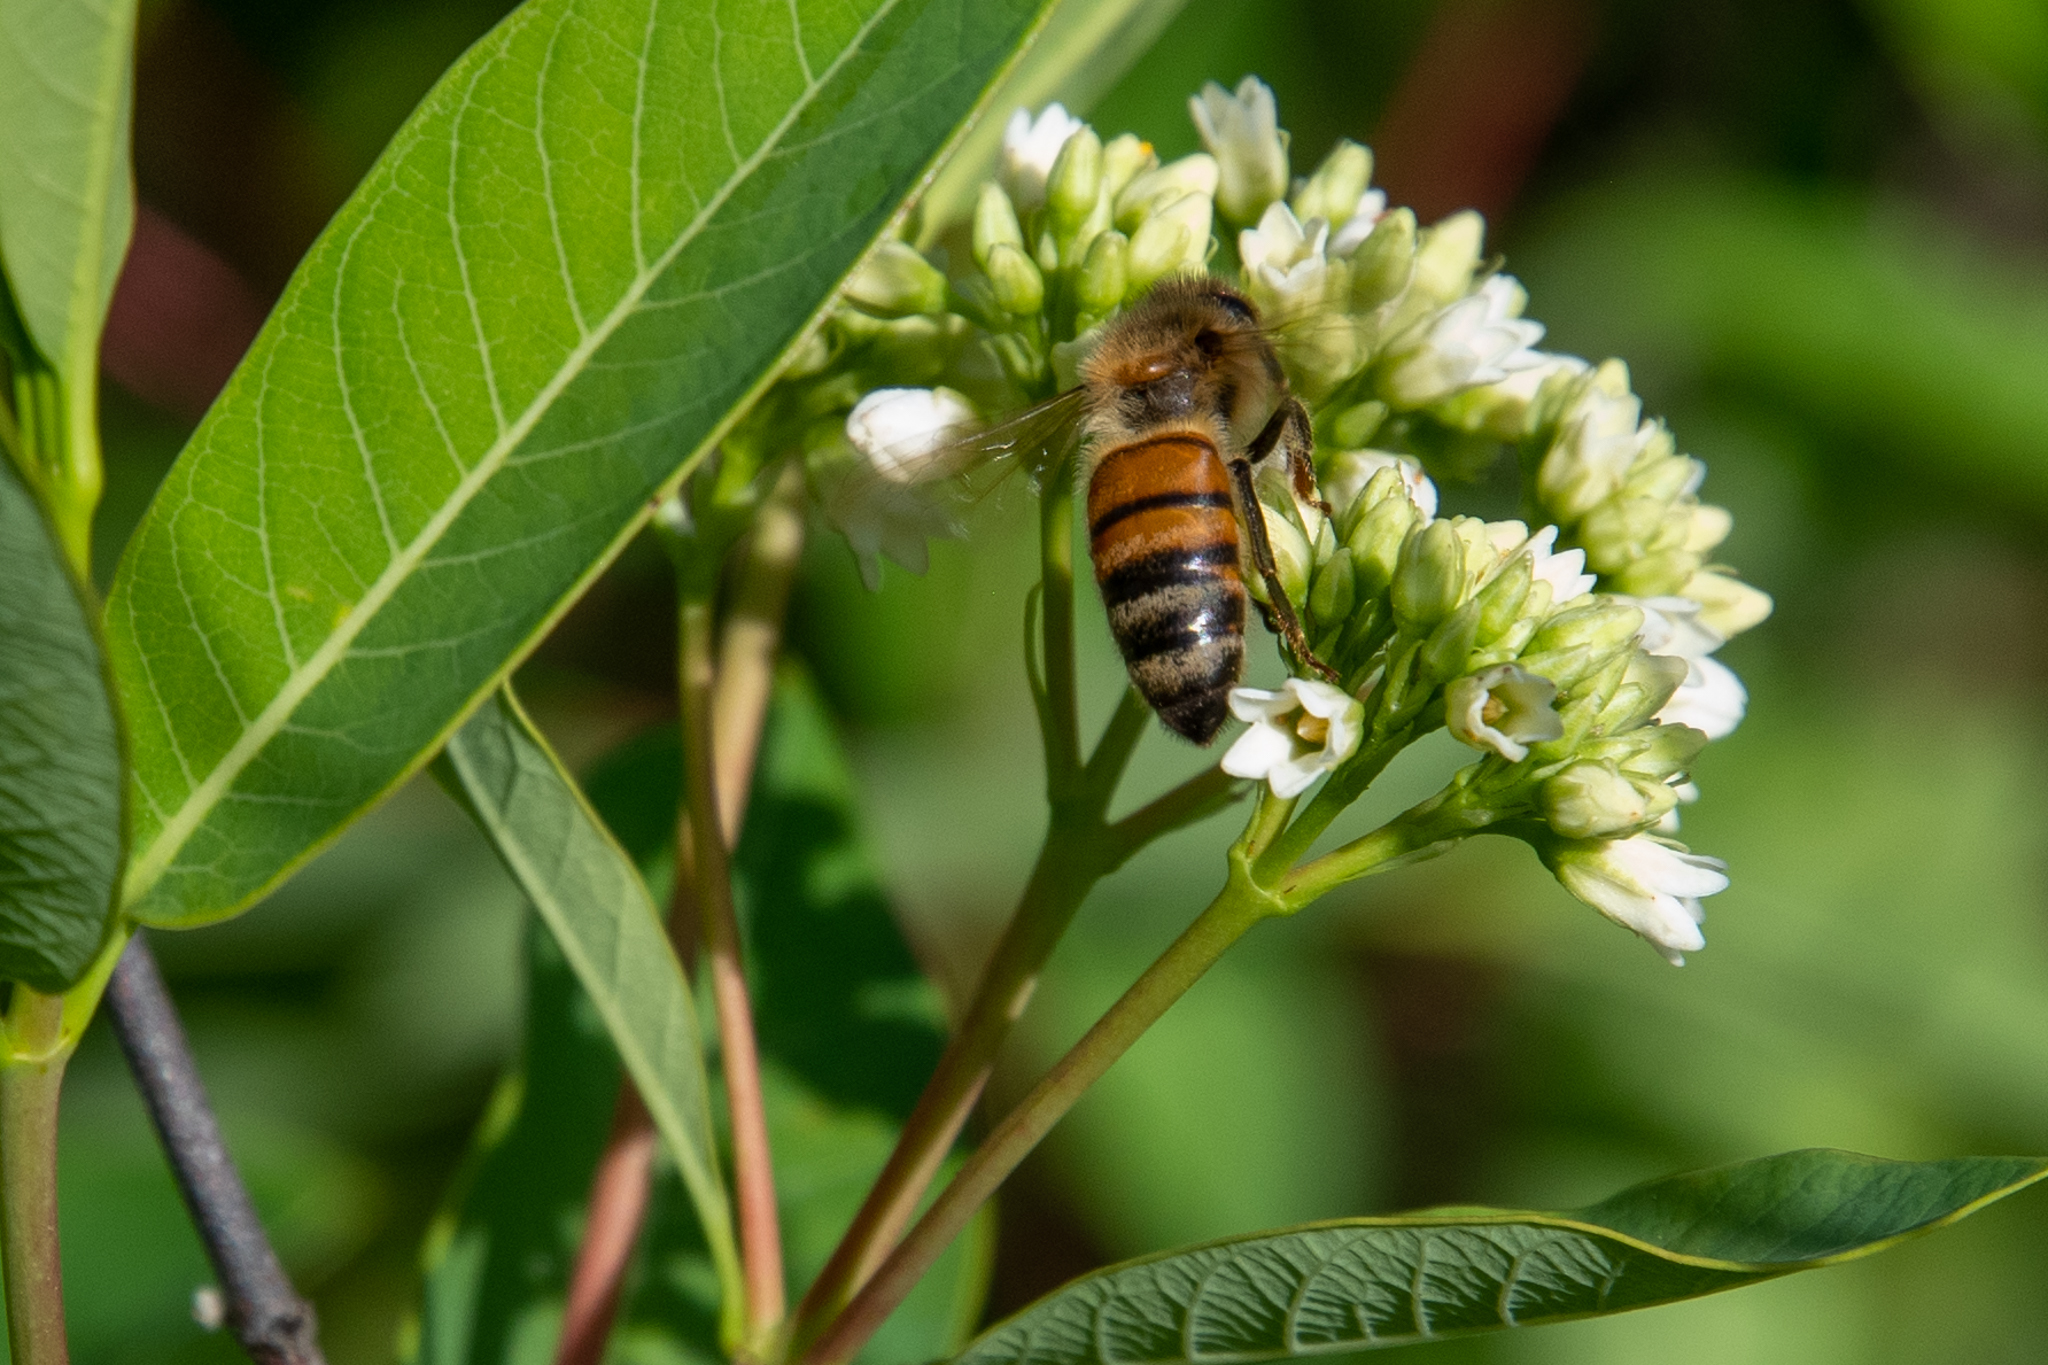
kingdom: Animalia
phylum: Arthropoda
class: Insecta
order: Hymenoptera
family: Apidae
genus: Apis
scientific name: Apis mellifera
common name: Honey bee
